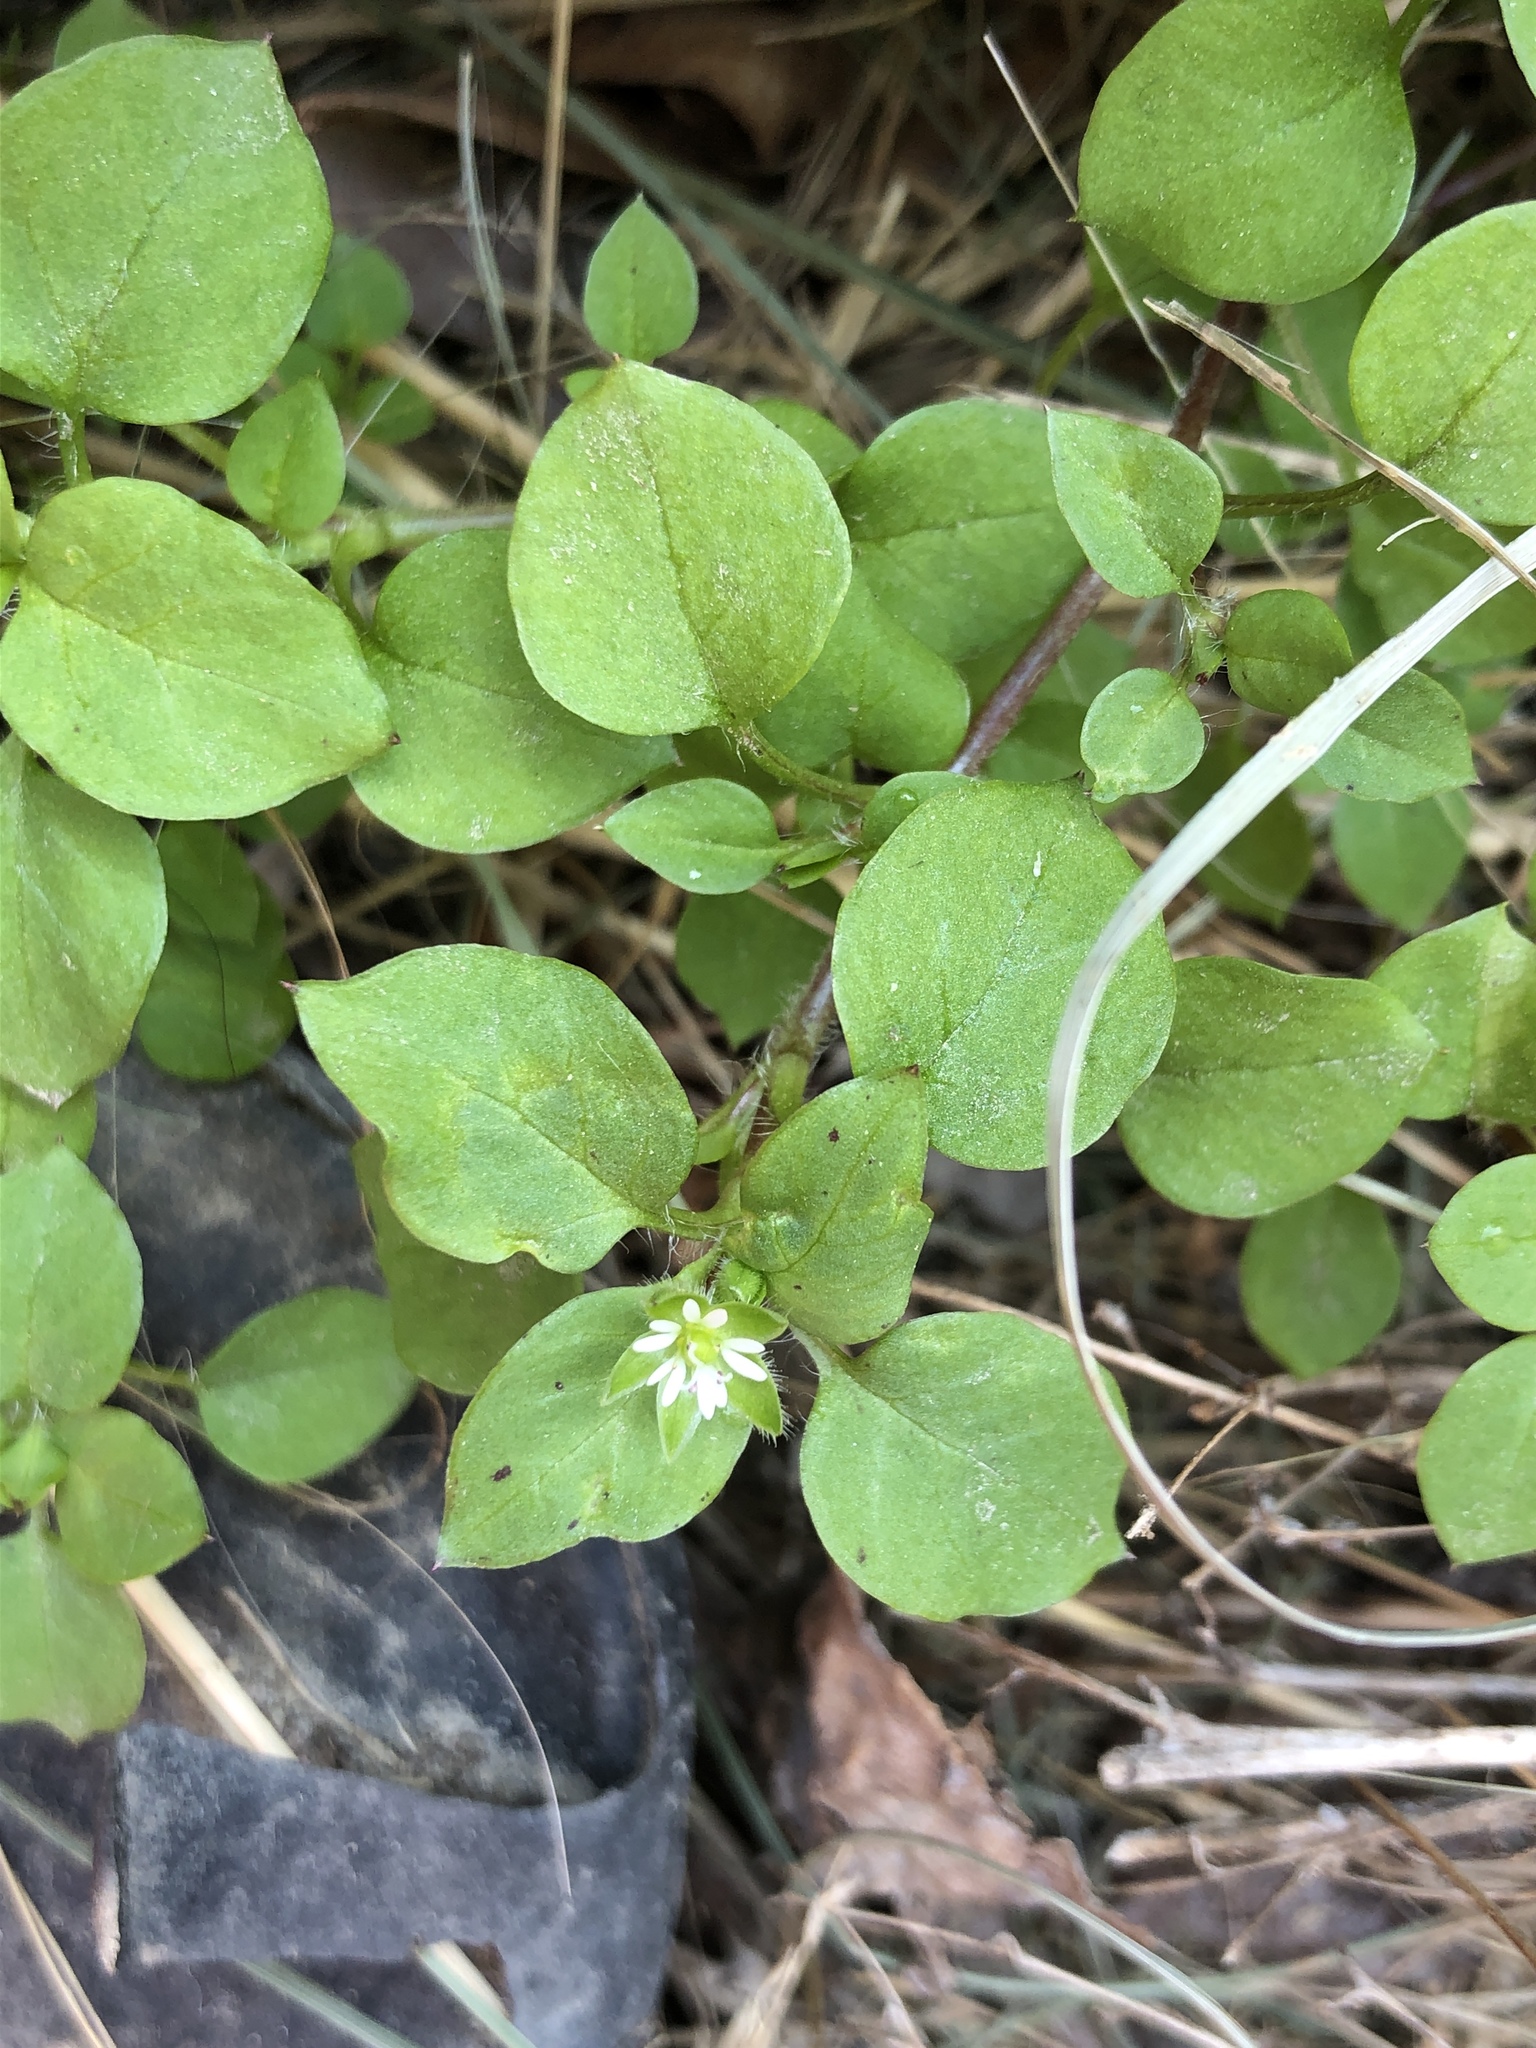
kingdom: Plantae
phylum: Tracheophyta
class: Magnoliopsida
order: Caryophyllales
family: Caryophyllaceae
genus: Stellaria
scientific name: Stellaria media
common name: Common chickweed
